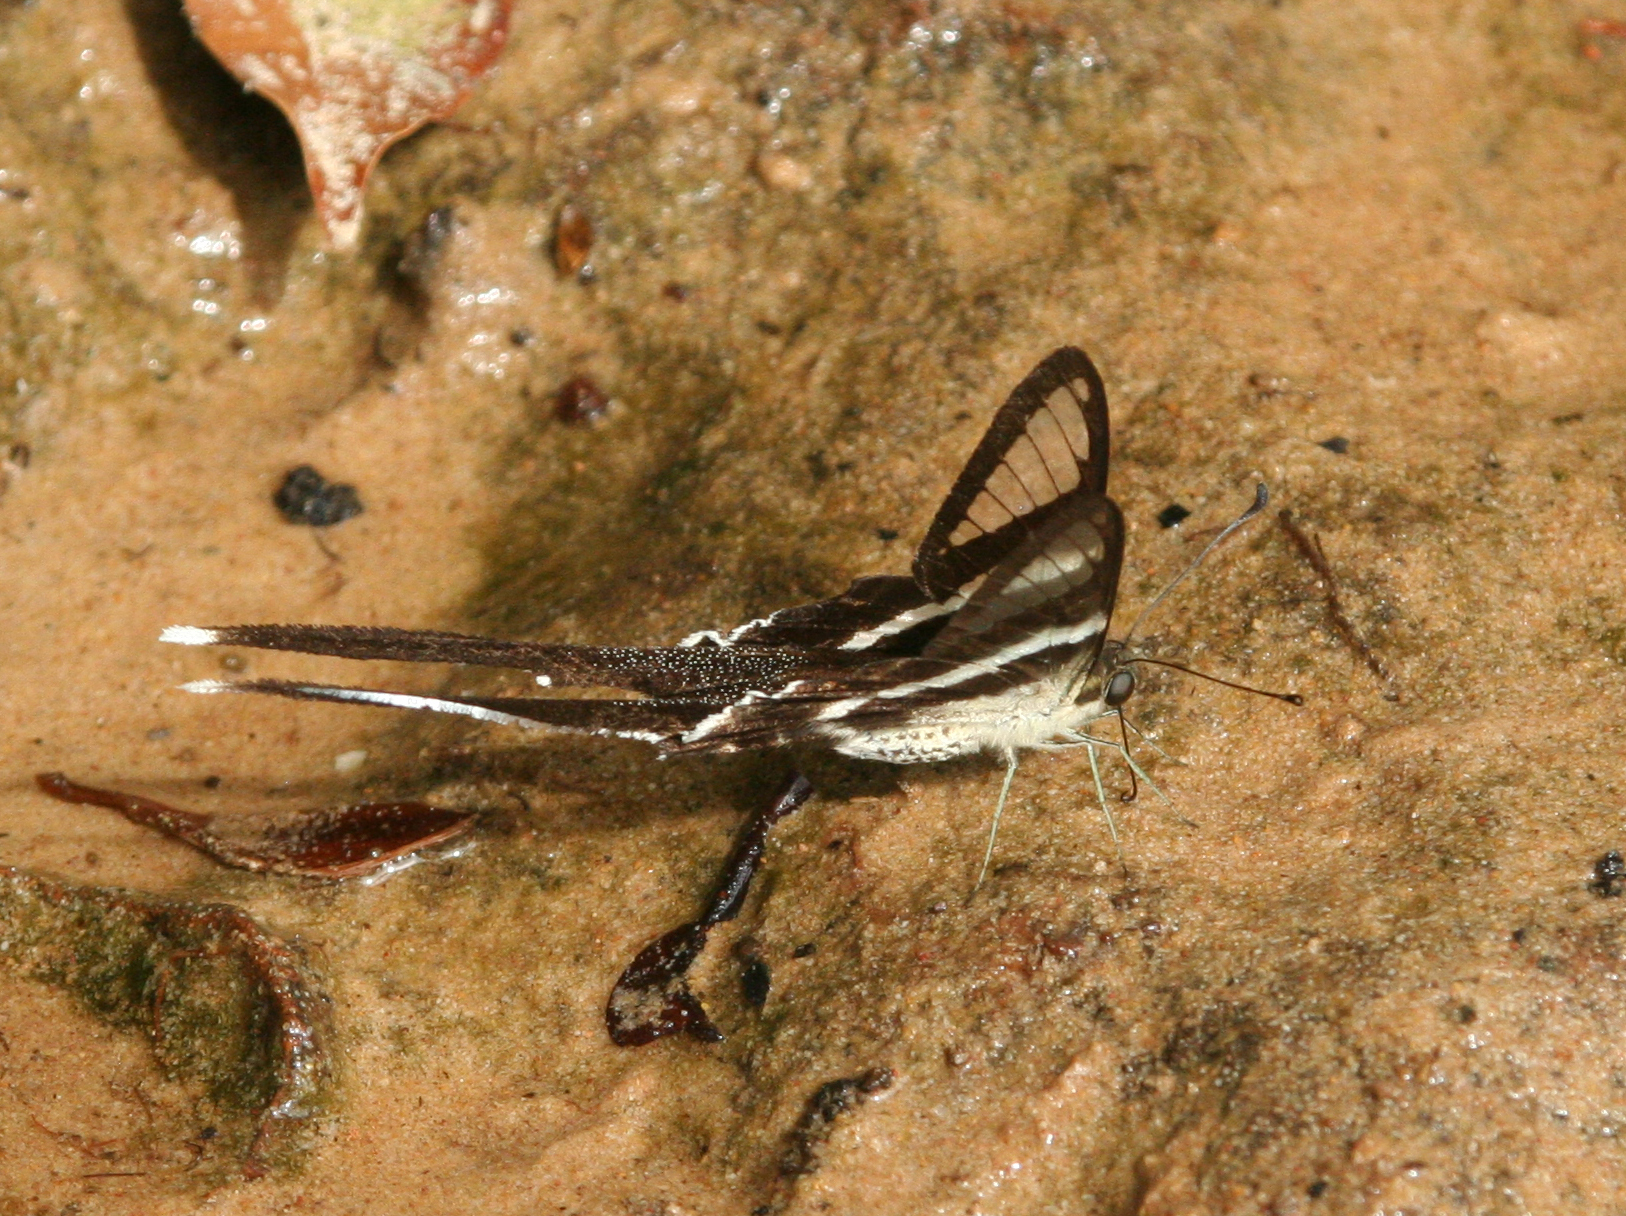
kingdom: Animalia
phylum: Arthropoda
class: Insecta
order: Lepidoptera
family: Papilionidae
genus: Lamproptera
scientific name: Lamproptera curius
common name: White dragontail
